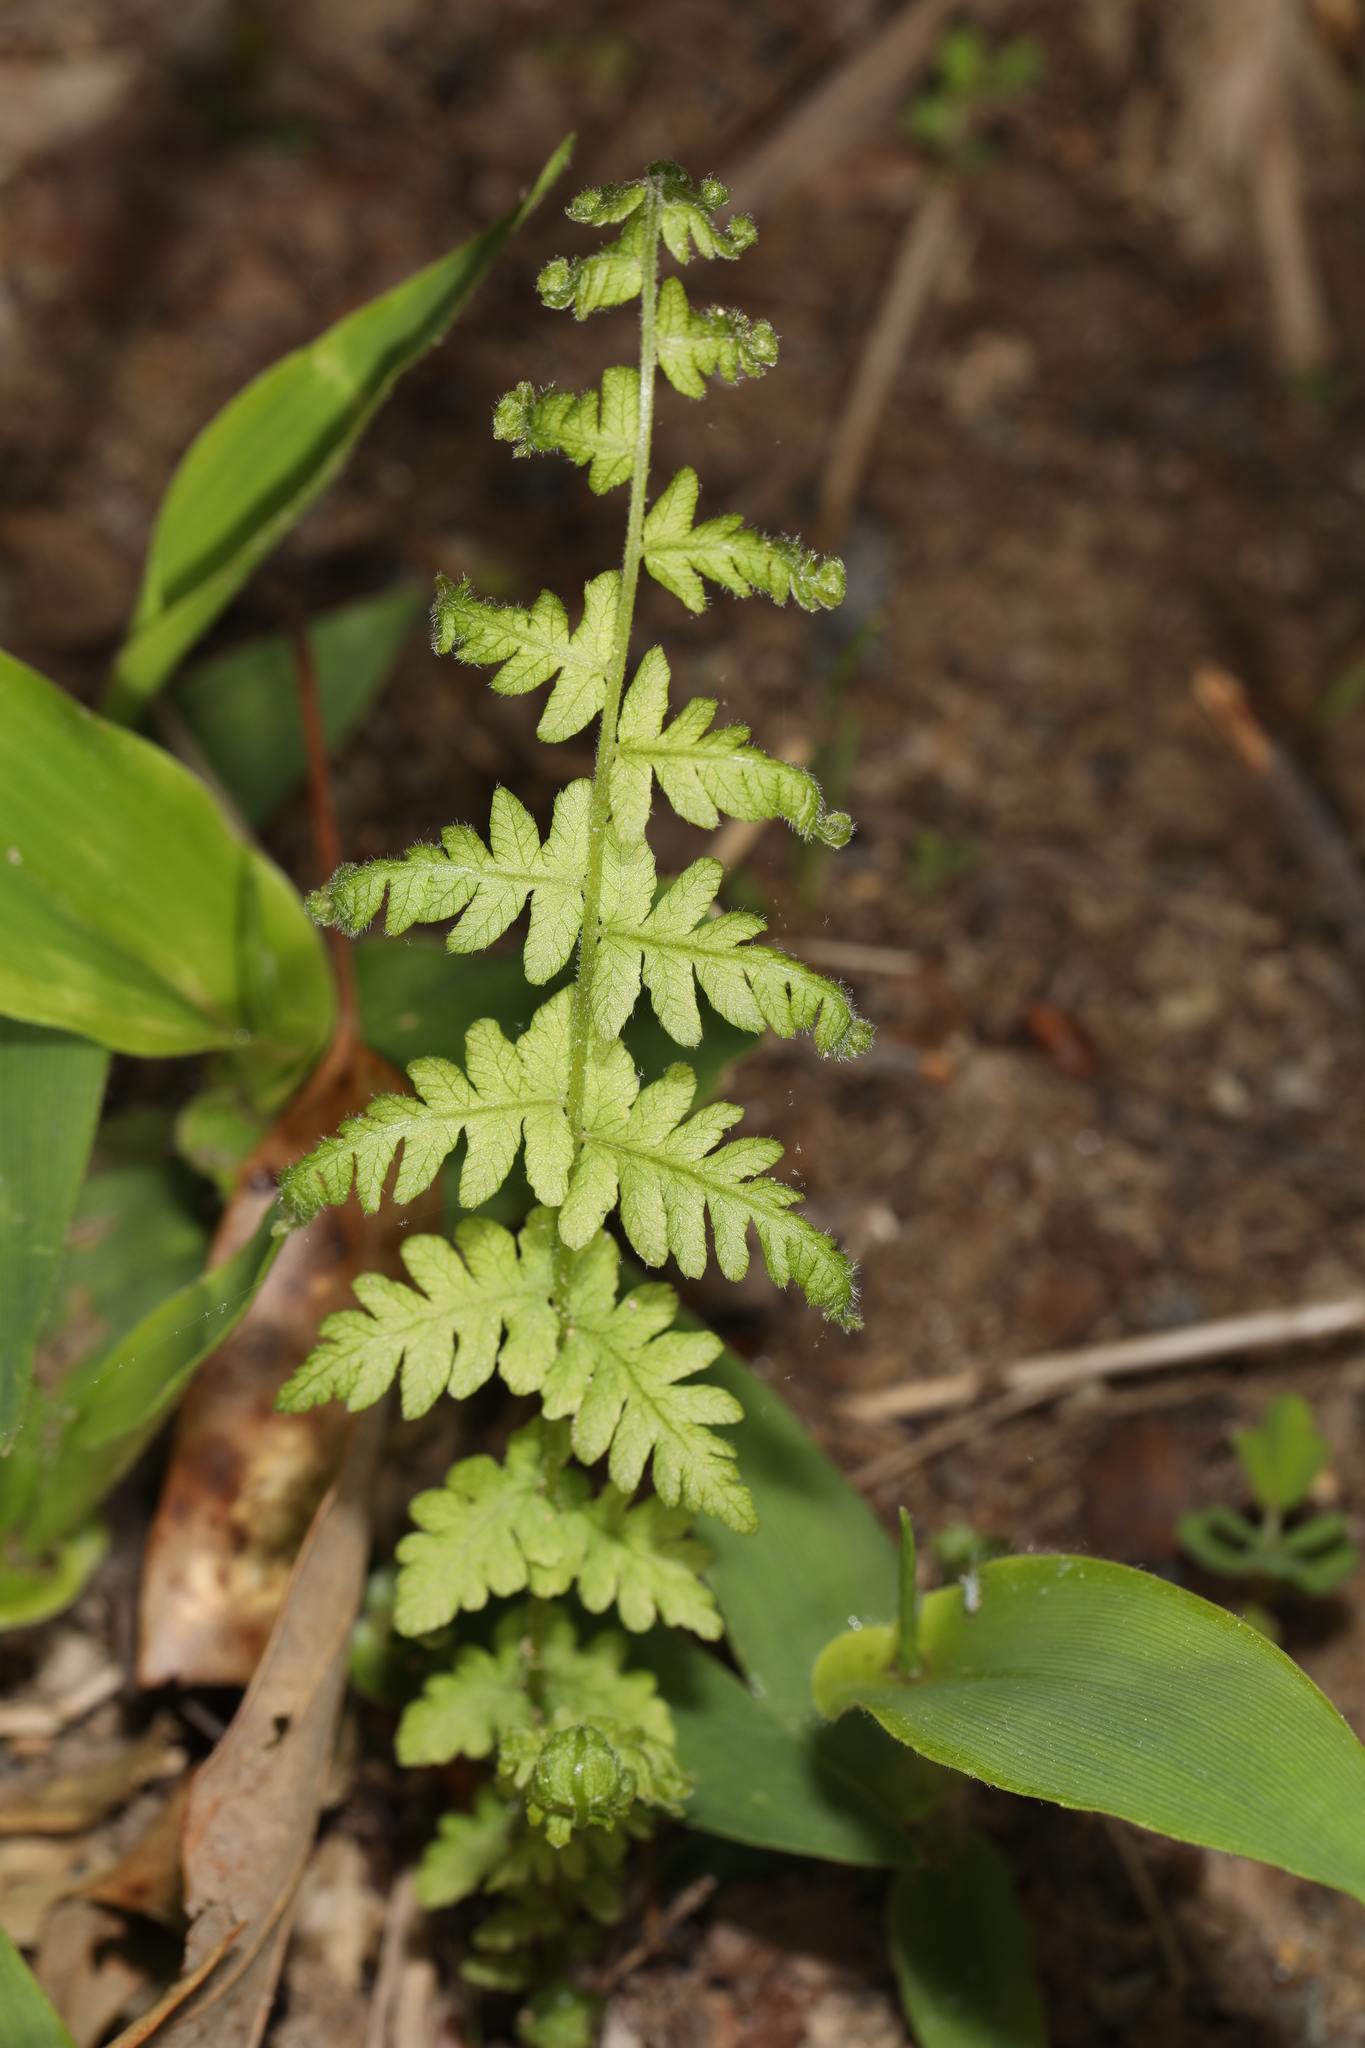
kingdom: Plantae
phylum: Tracheophyta
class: Polypodiopsida
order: Polypodiales
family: Thelypteridaceae
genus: Amauropelta
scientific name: Amauropelta noveboracensis
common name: New york fern
